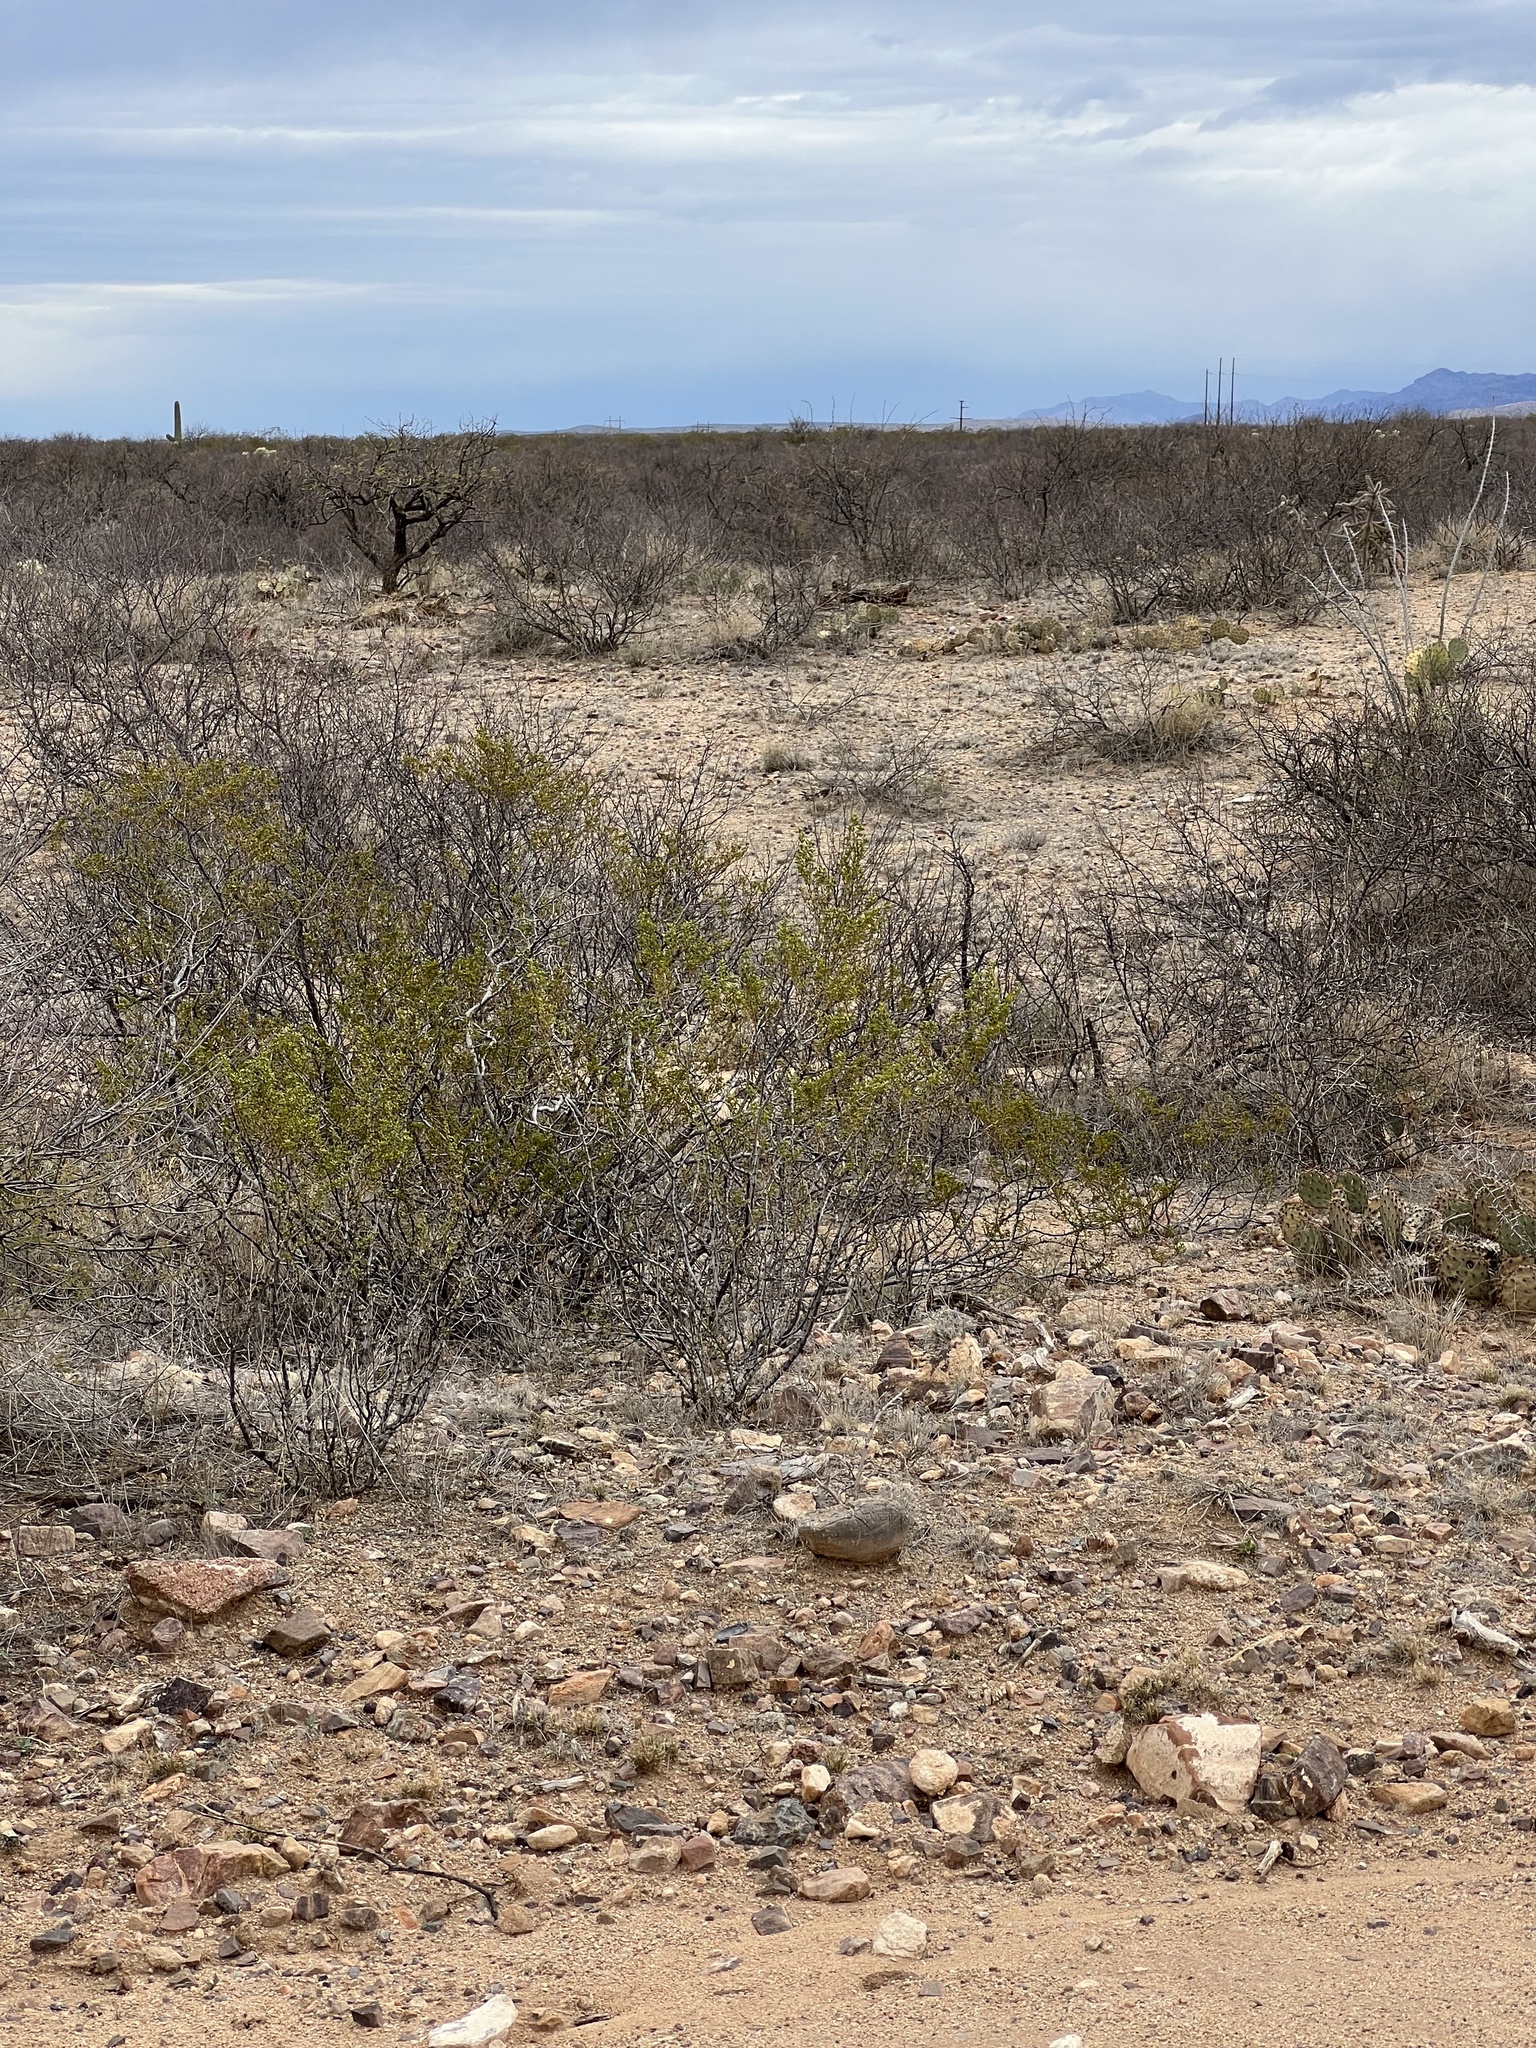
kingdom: Plantae
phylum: Tracheophyta
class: Magnoliopsida
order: Zygophyllales
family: Zygophyllaceae
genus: Larrea
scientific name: Larrea tridentata
